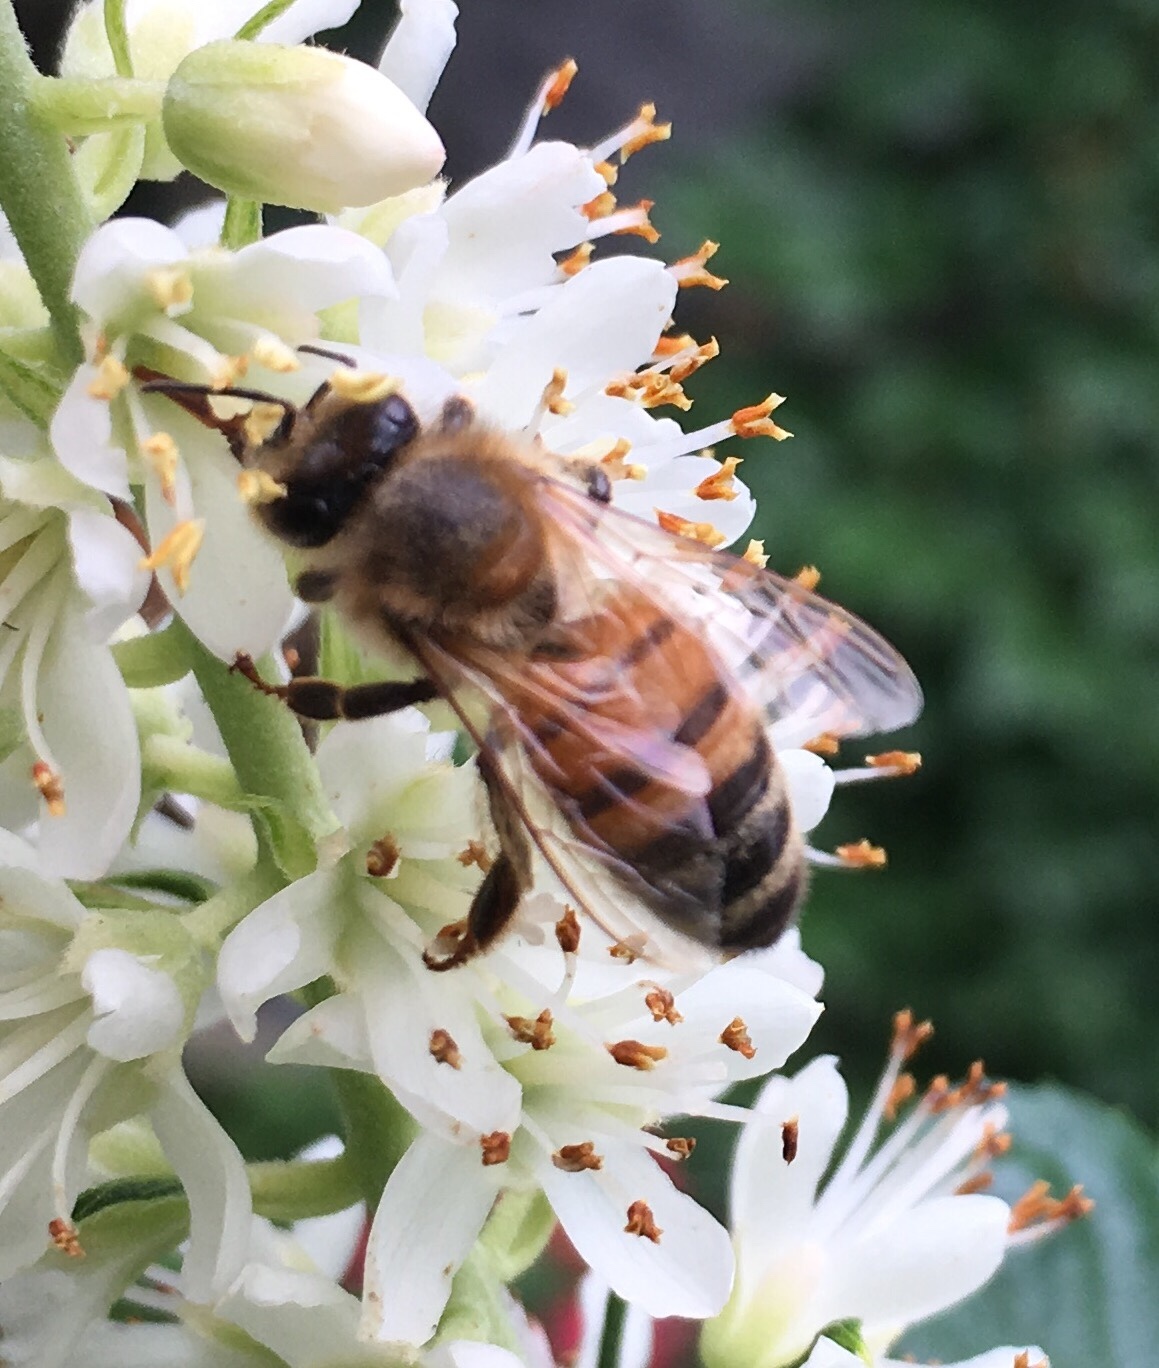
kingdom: Animalia
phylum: Arthropoda
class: Insecta
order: Hymenoptera
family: Apidae
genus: Apis
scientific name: Apis mellifera
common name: Honey bee
